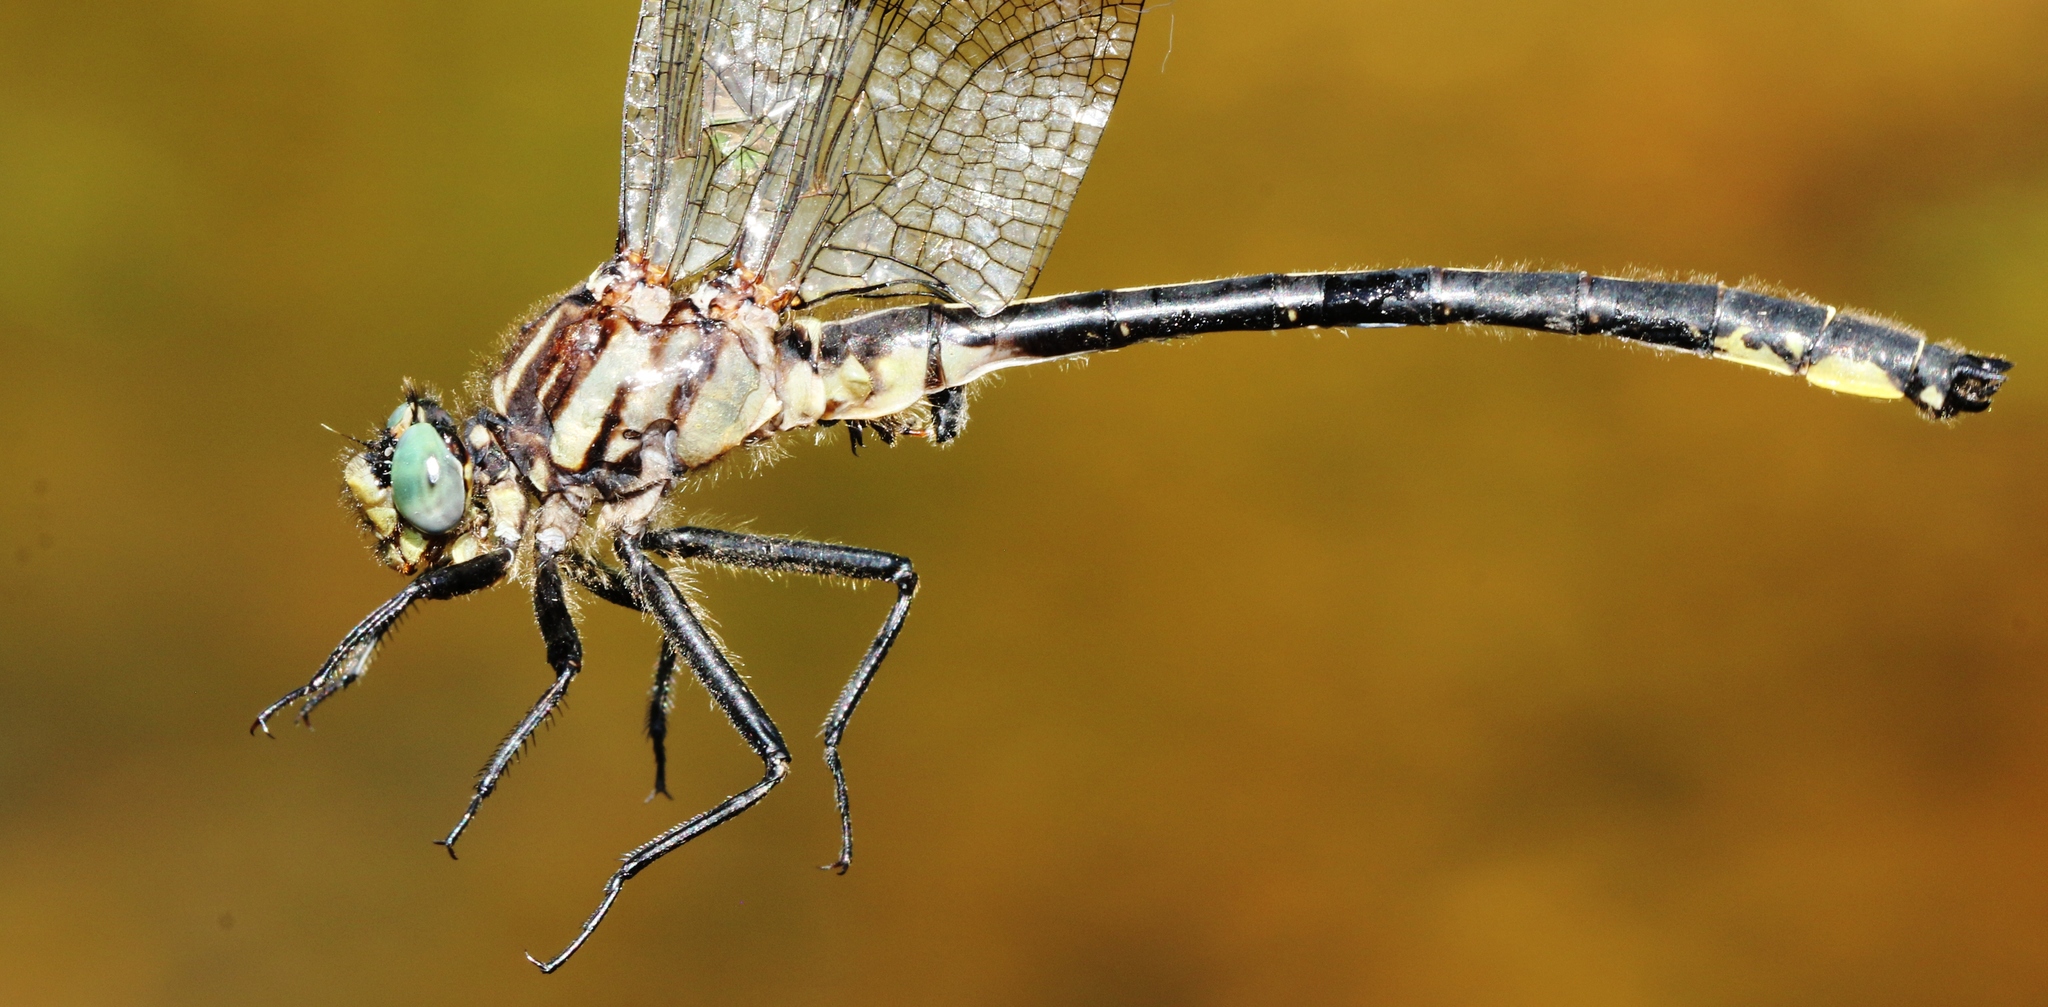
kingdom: Animalia
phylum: Arthropoda
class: Insecta
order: Odonata
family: Gomphidae
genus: Phanogomphus
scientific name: Phanogomphus descriptus
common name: Harpoon clubtail
